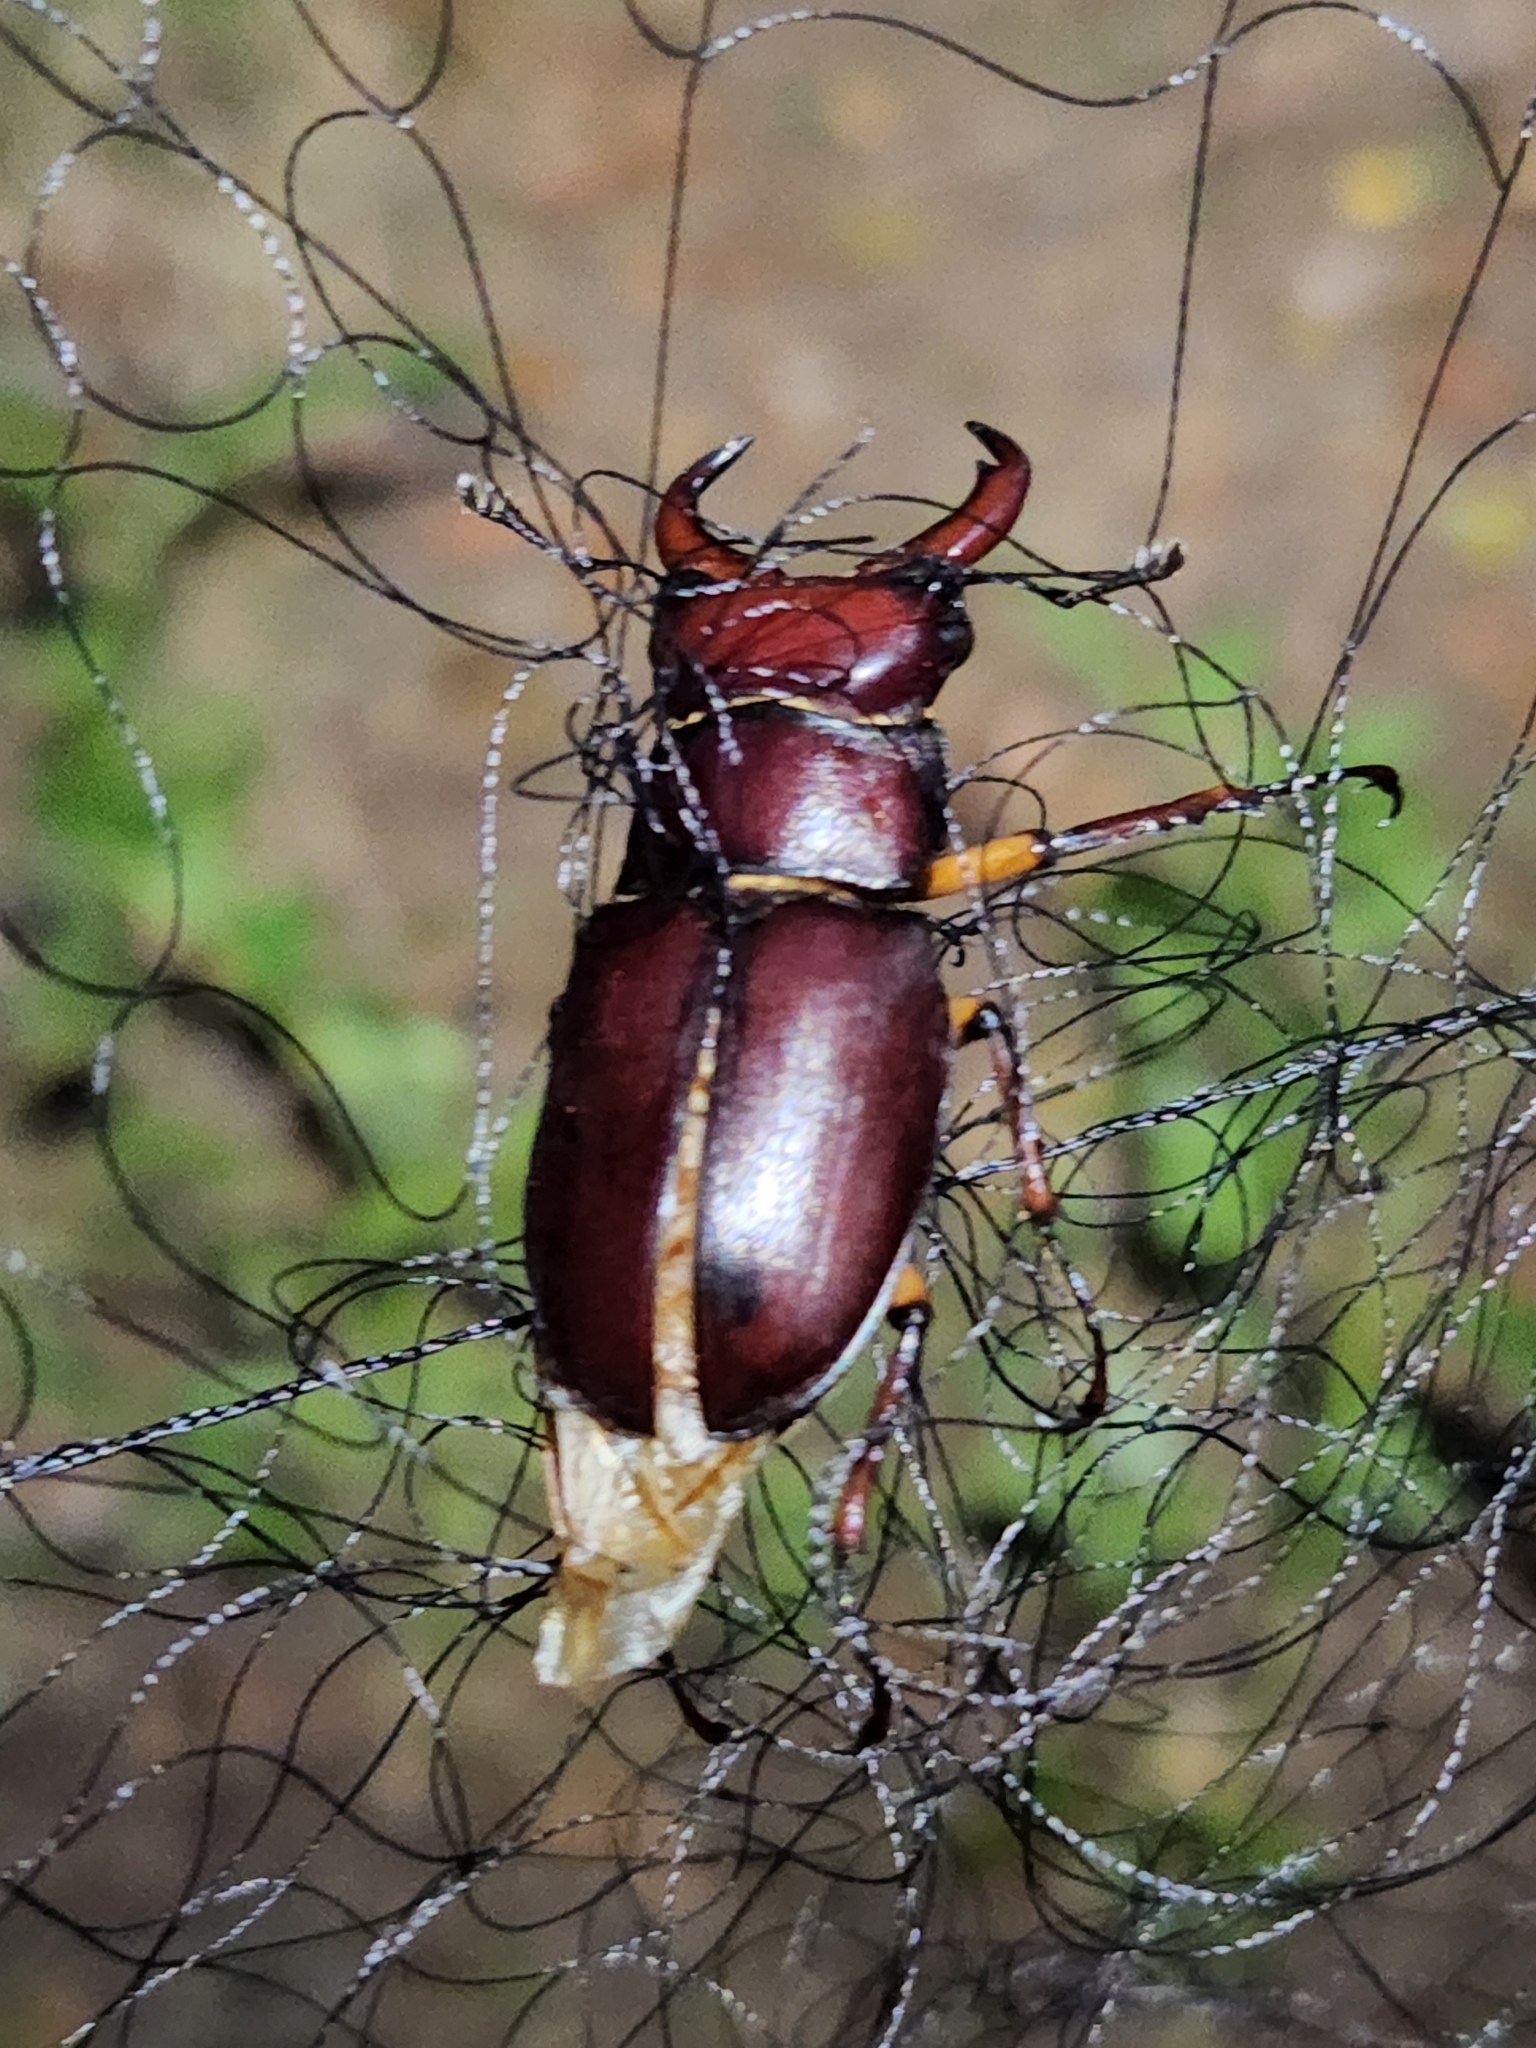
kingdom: Animalia
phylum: Arthropoda
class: Insecta
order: Coleoptera
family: Lucanidae
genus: Lucanus
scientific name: Lucanus capreolus
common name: Stag beetle
